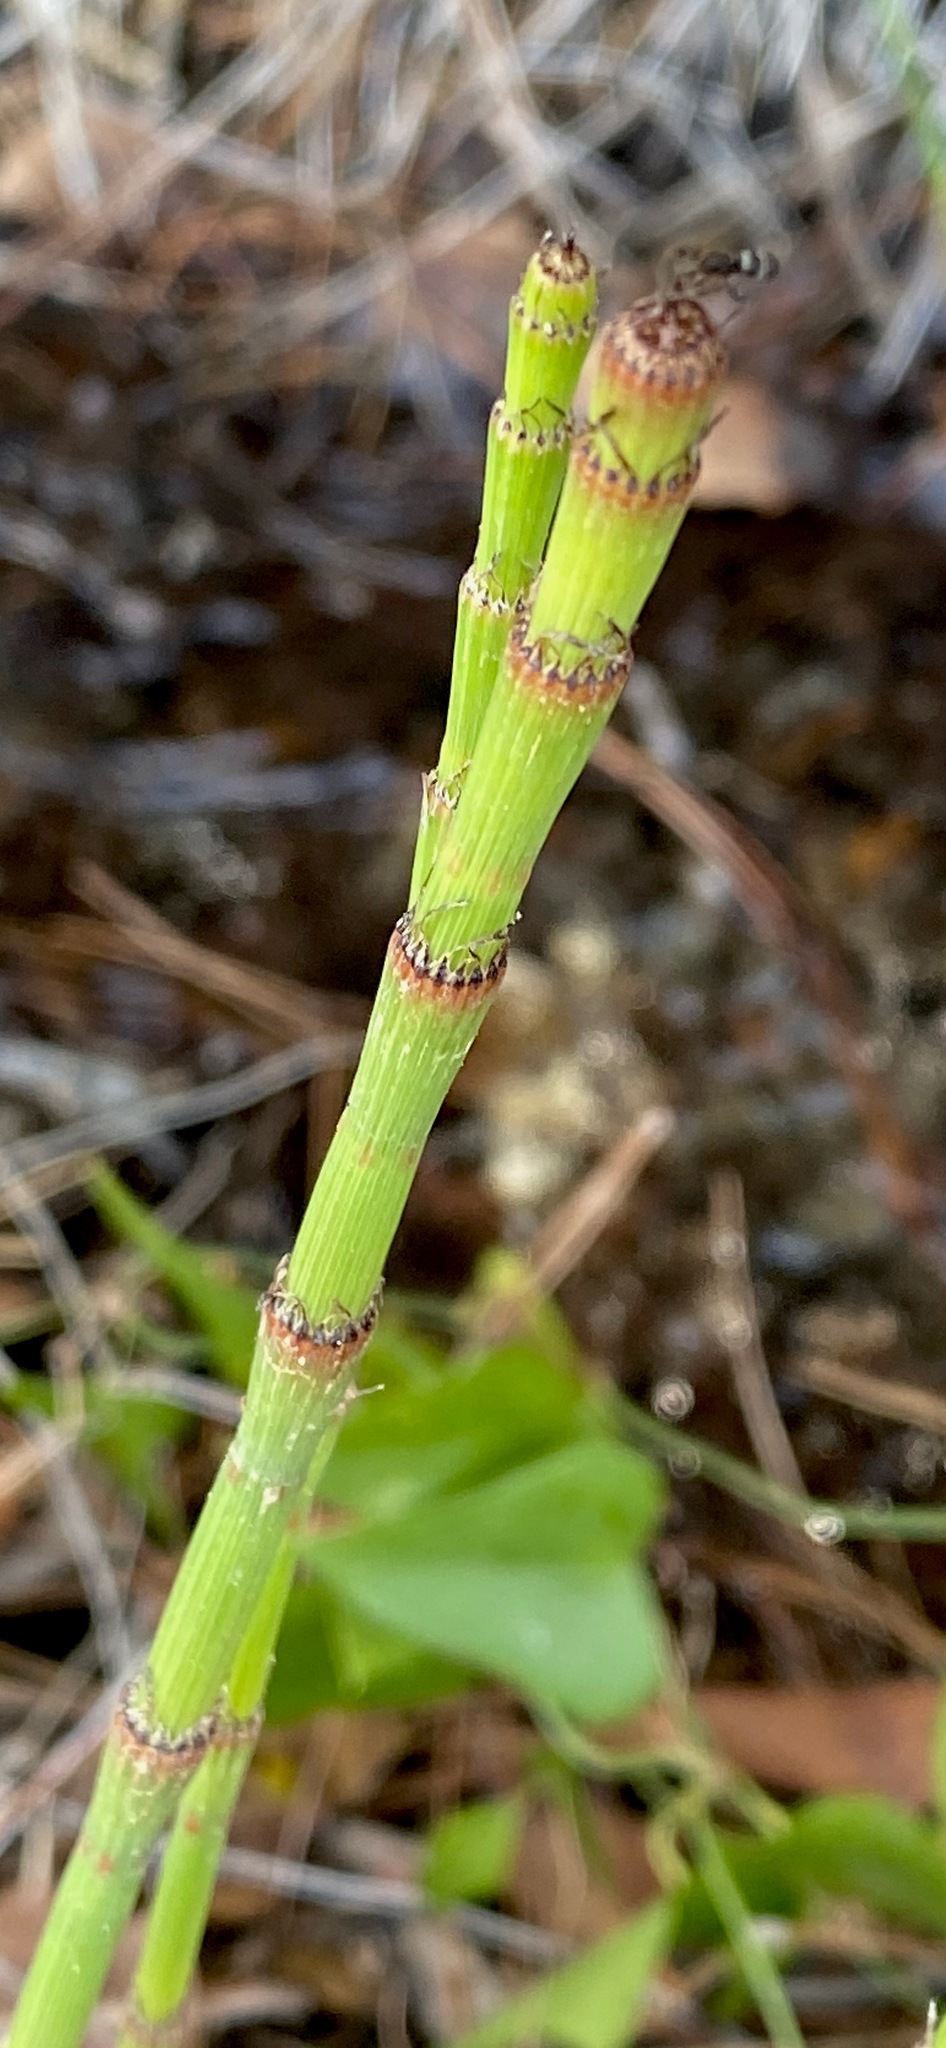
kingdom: Plantae
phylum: Tracheophyta
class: Polypodiopsida
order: Equisetales
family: Equisetaceae
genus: Equisetum
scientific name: Equisetum ramosissimum
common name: Branched horsetail
